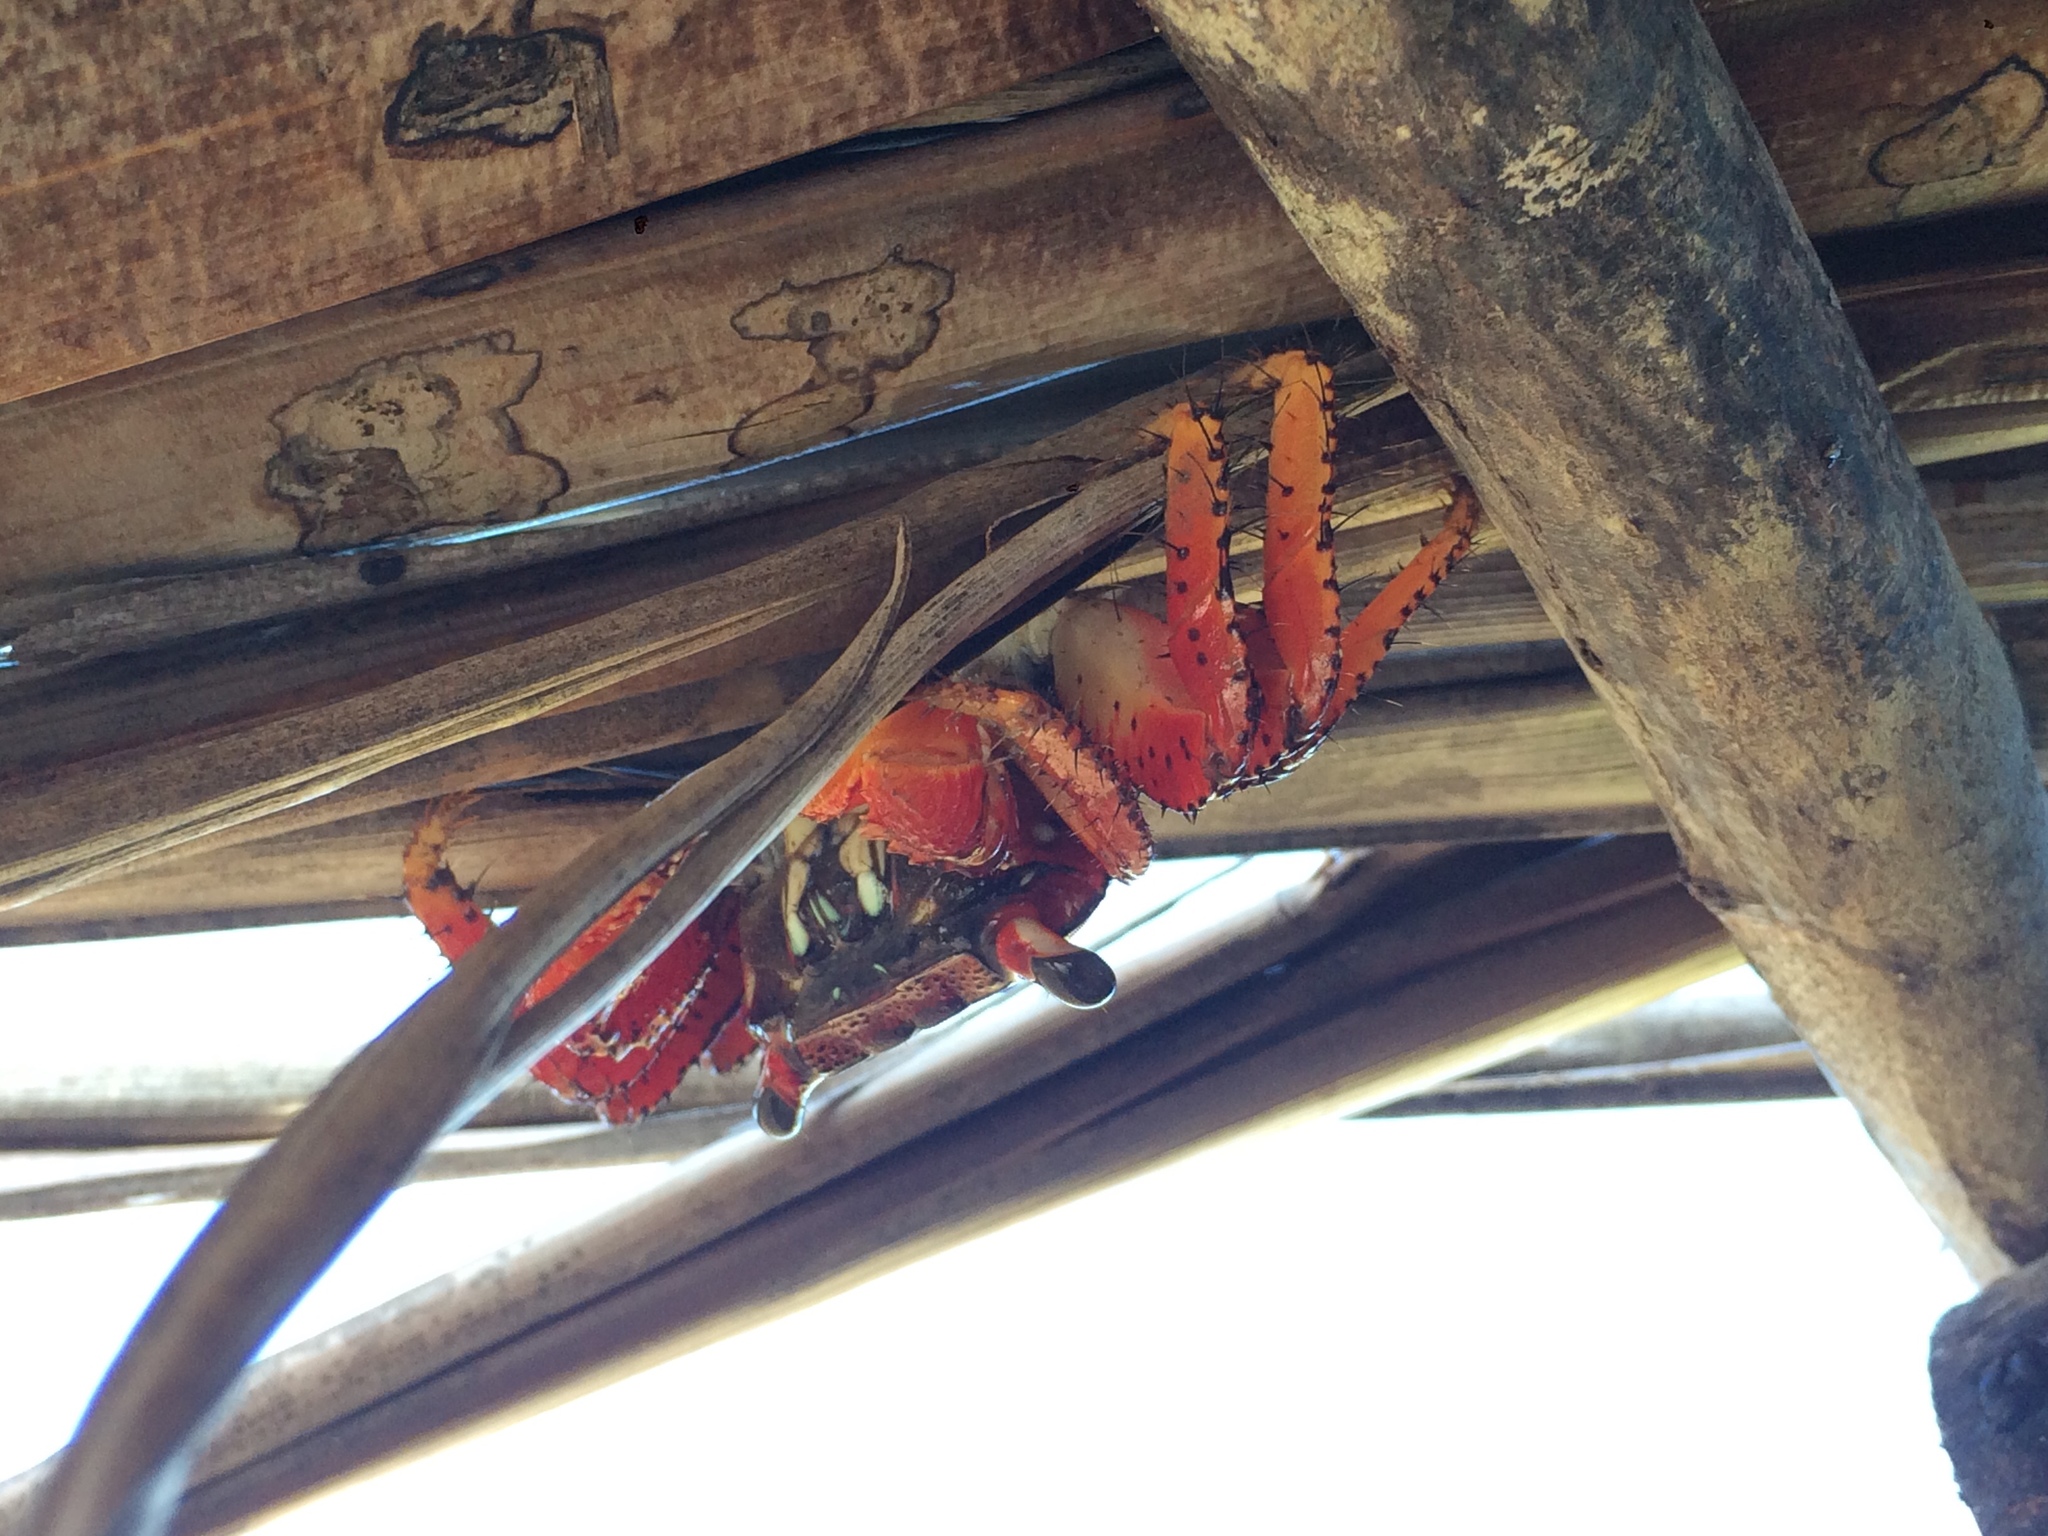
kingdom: Animalia
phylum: Arthropoda
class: Malacostraca
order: Decapoda
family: Grapsidae
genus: Goniopsis
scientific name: Goniopsis cruentata
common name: Mangrove crab
